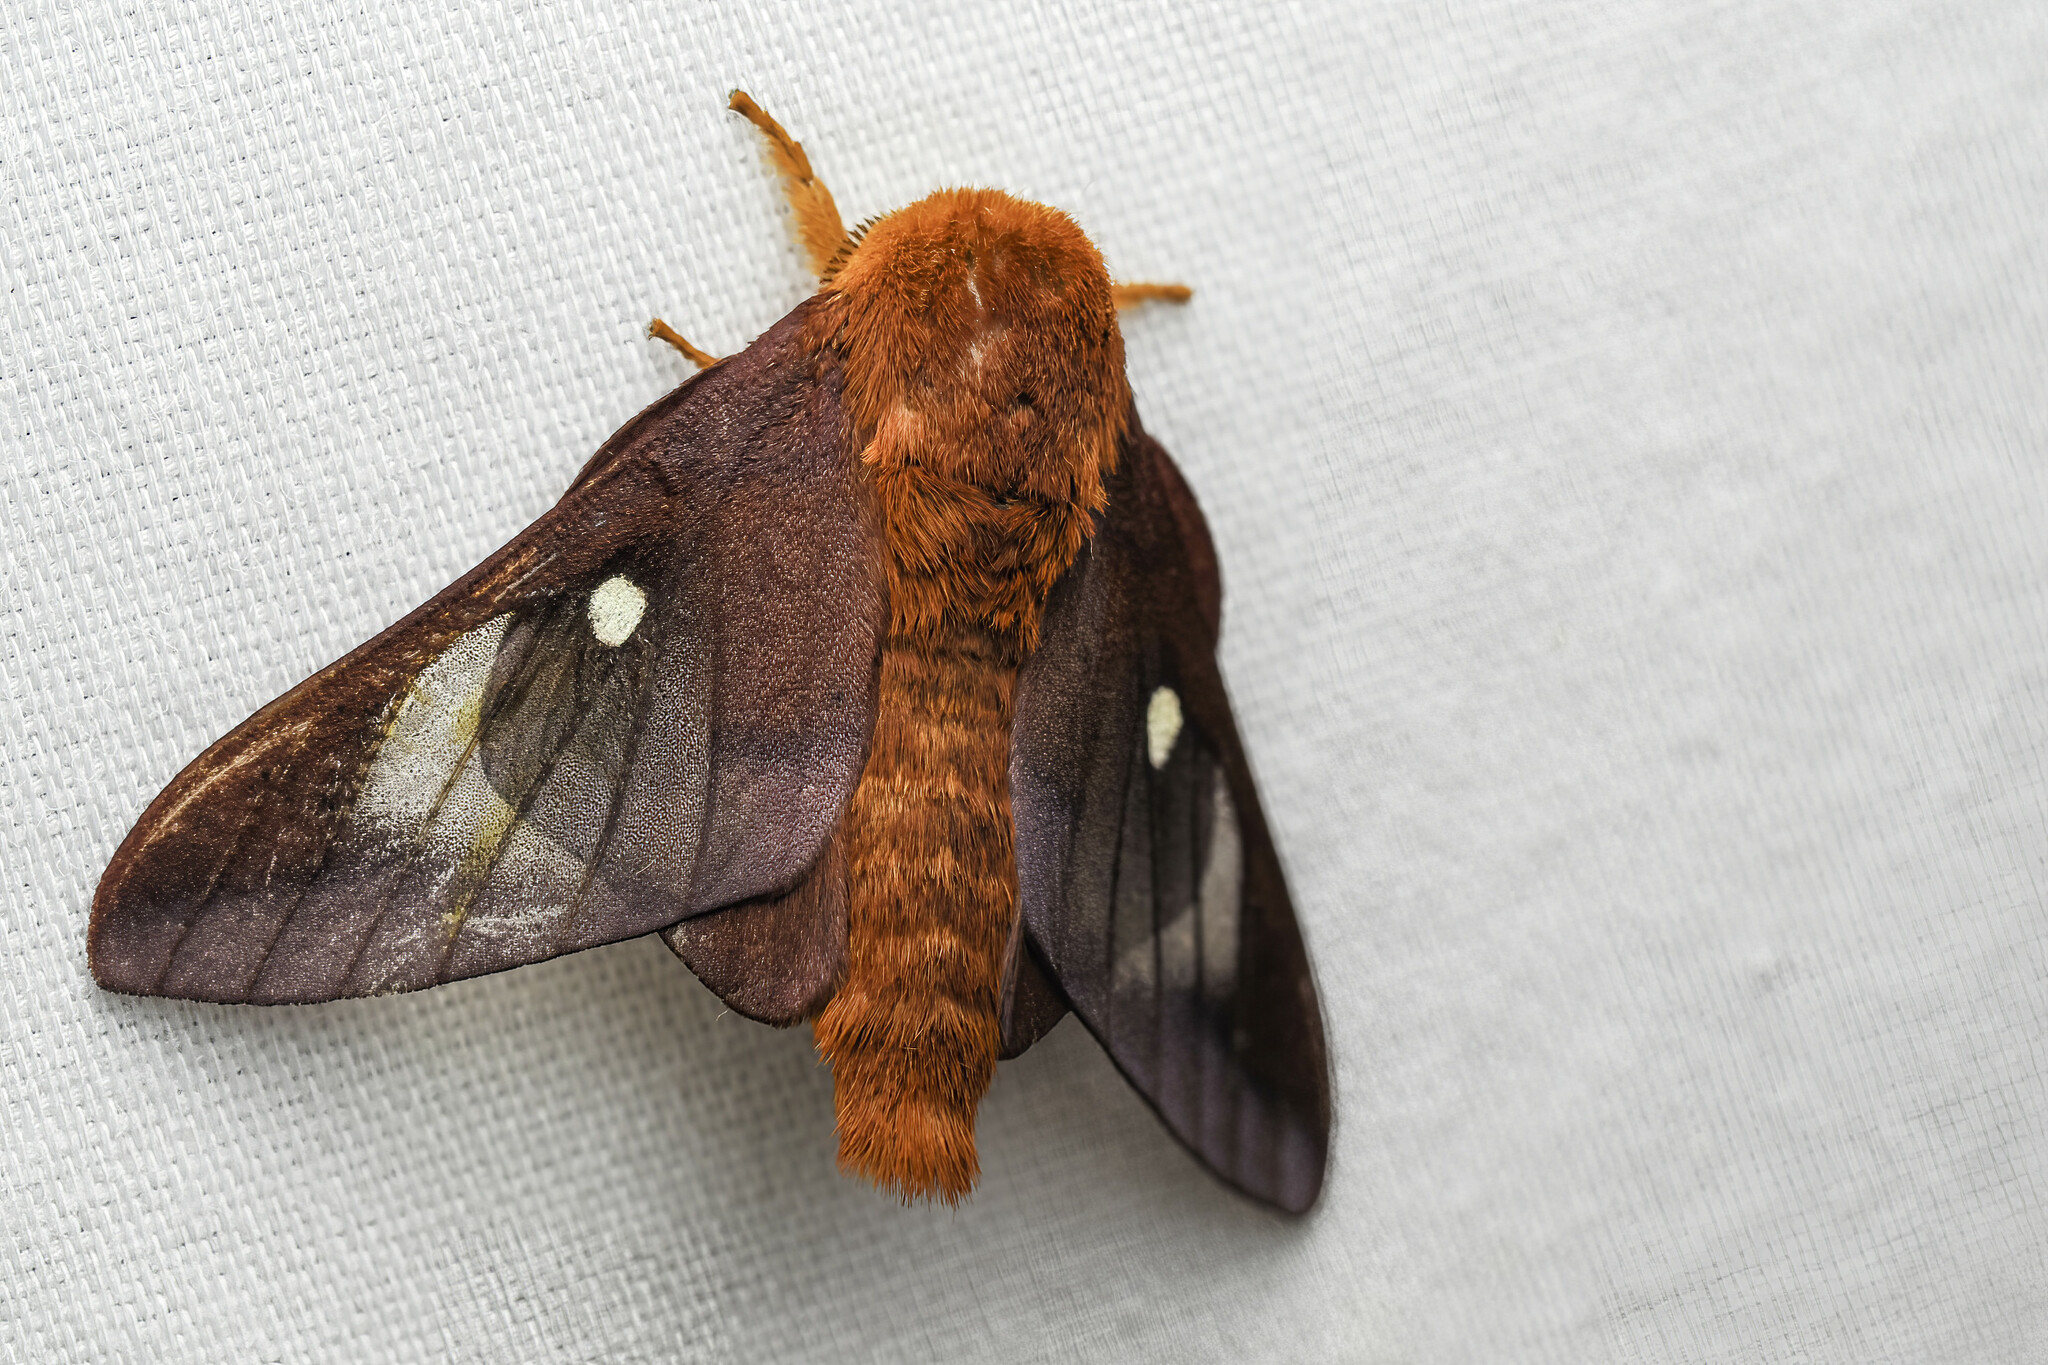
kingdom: Animalia
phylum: Arthropoda
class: Insecta
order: Lepidoptera
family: Saturniidae
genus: Anisota
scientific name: Anisota virginiensis
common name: Pink striped oakworm moth
